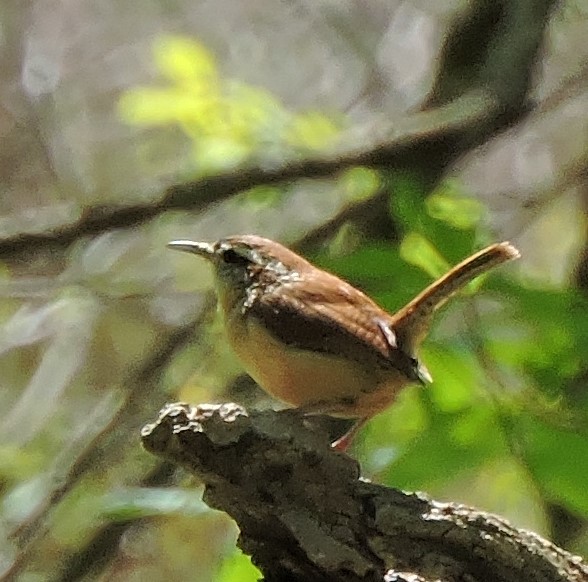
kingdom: Animalia
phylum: Chordata
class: Aves
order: Passeriformes
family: Troglodytidae
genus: Thryothorus
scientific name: Thryothorus ludovicianus
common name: Carolina wren
